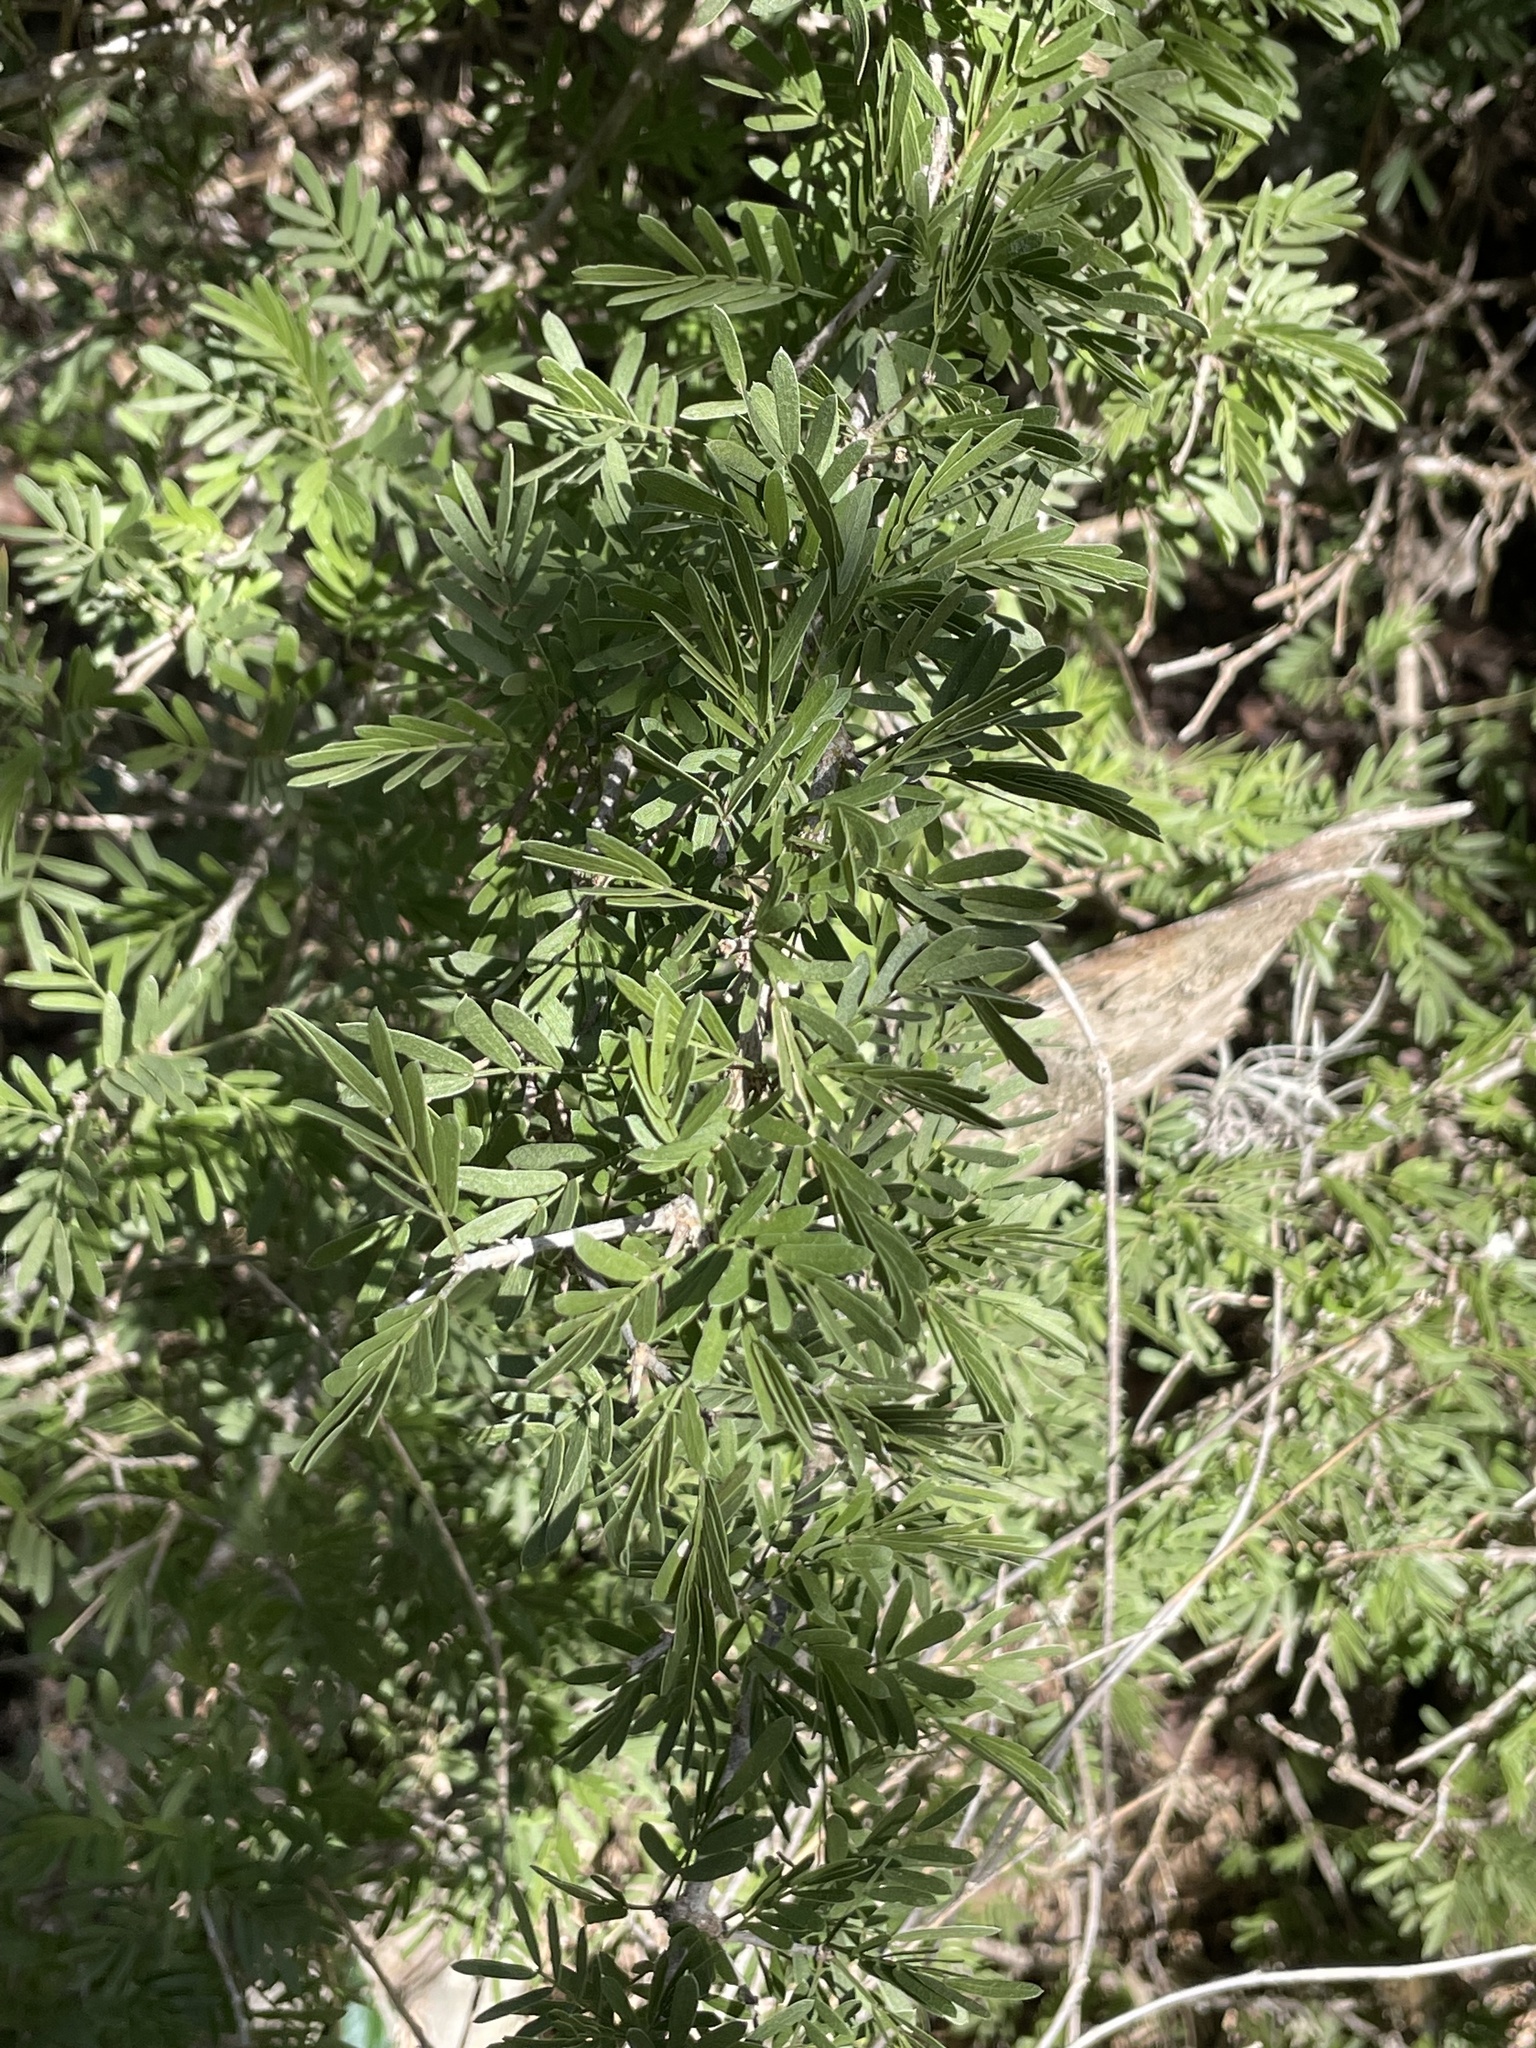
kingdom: Plantae
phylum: Tracheophyta
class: Magnoliopsida
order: Zygophyllales
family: Zygophyllaceae
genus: Porlieria
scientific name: Porlieria angustifolia
